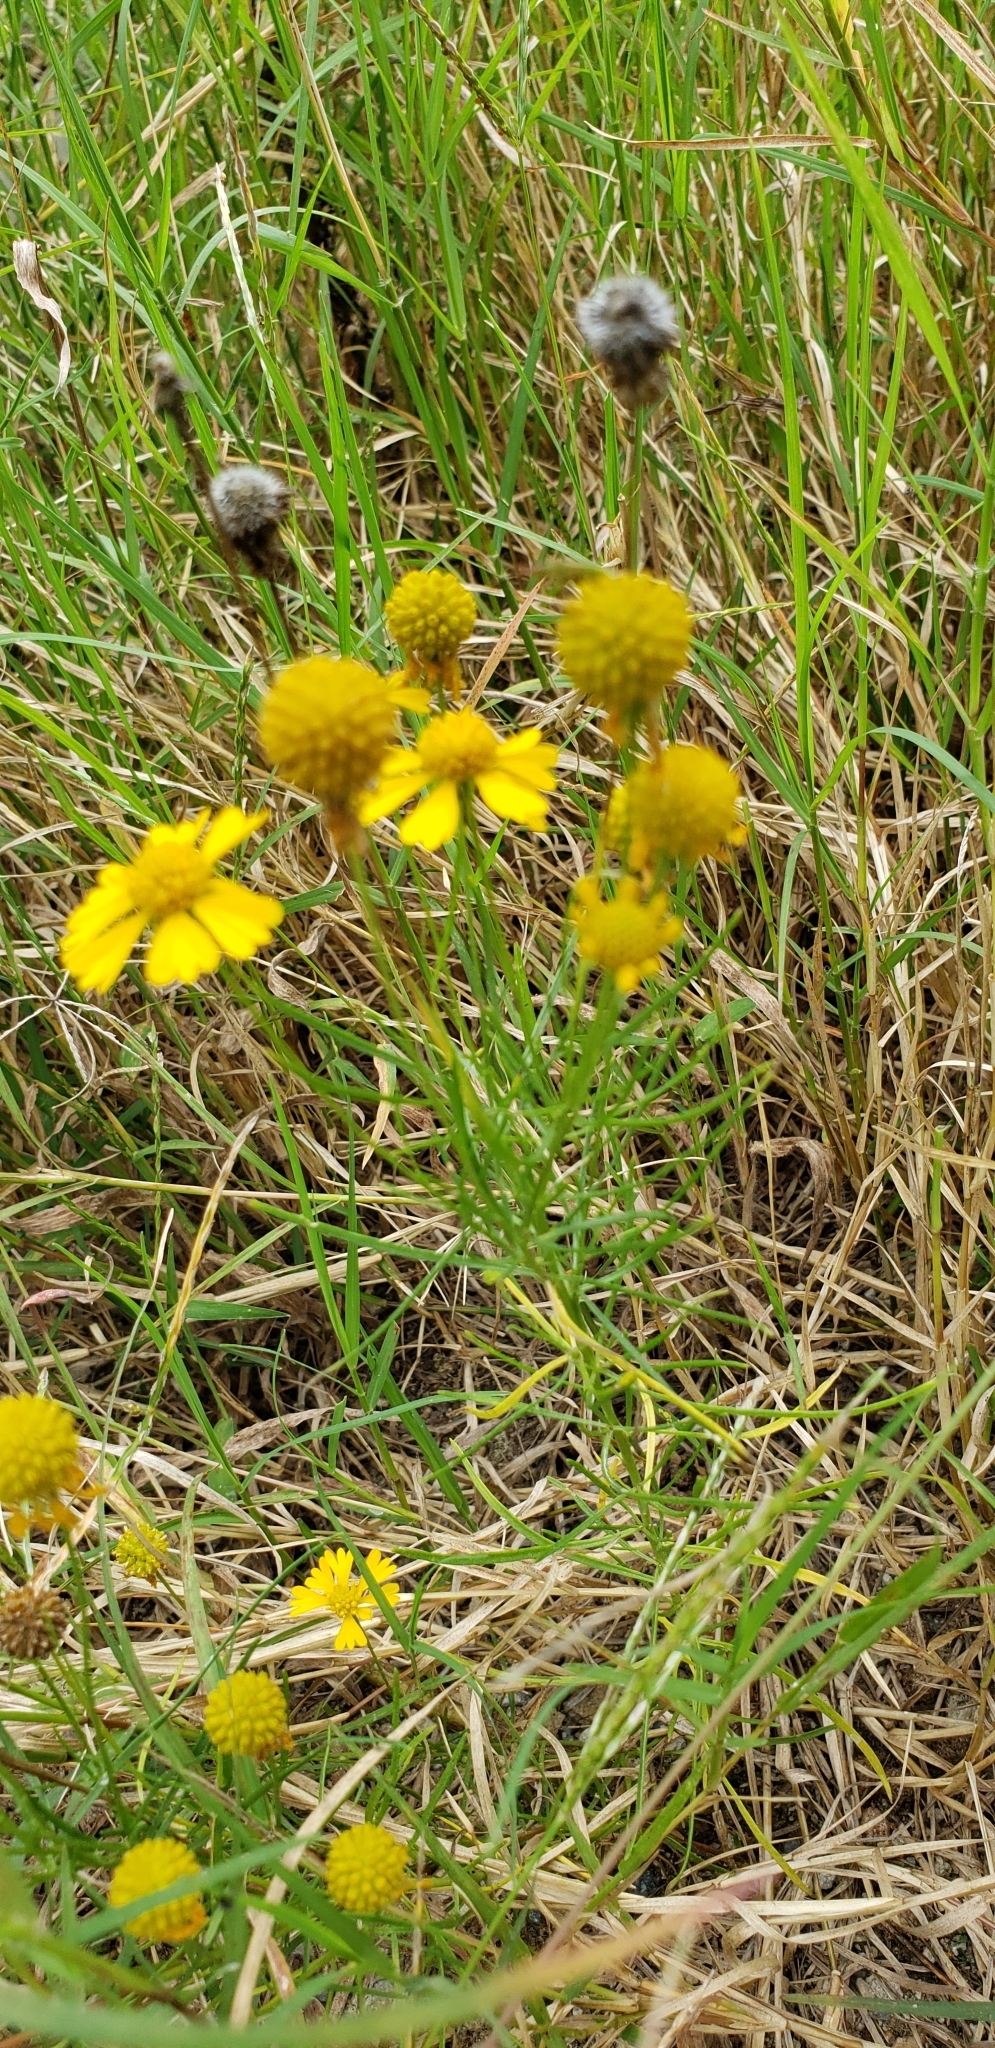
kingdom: Plantae
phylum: Tracheophyta
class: Magnoliopsida
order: Asterales
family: Asteraceae
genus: Helenium
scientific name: Helenium amarum
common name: Bitter sneezeweed
